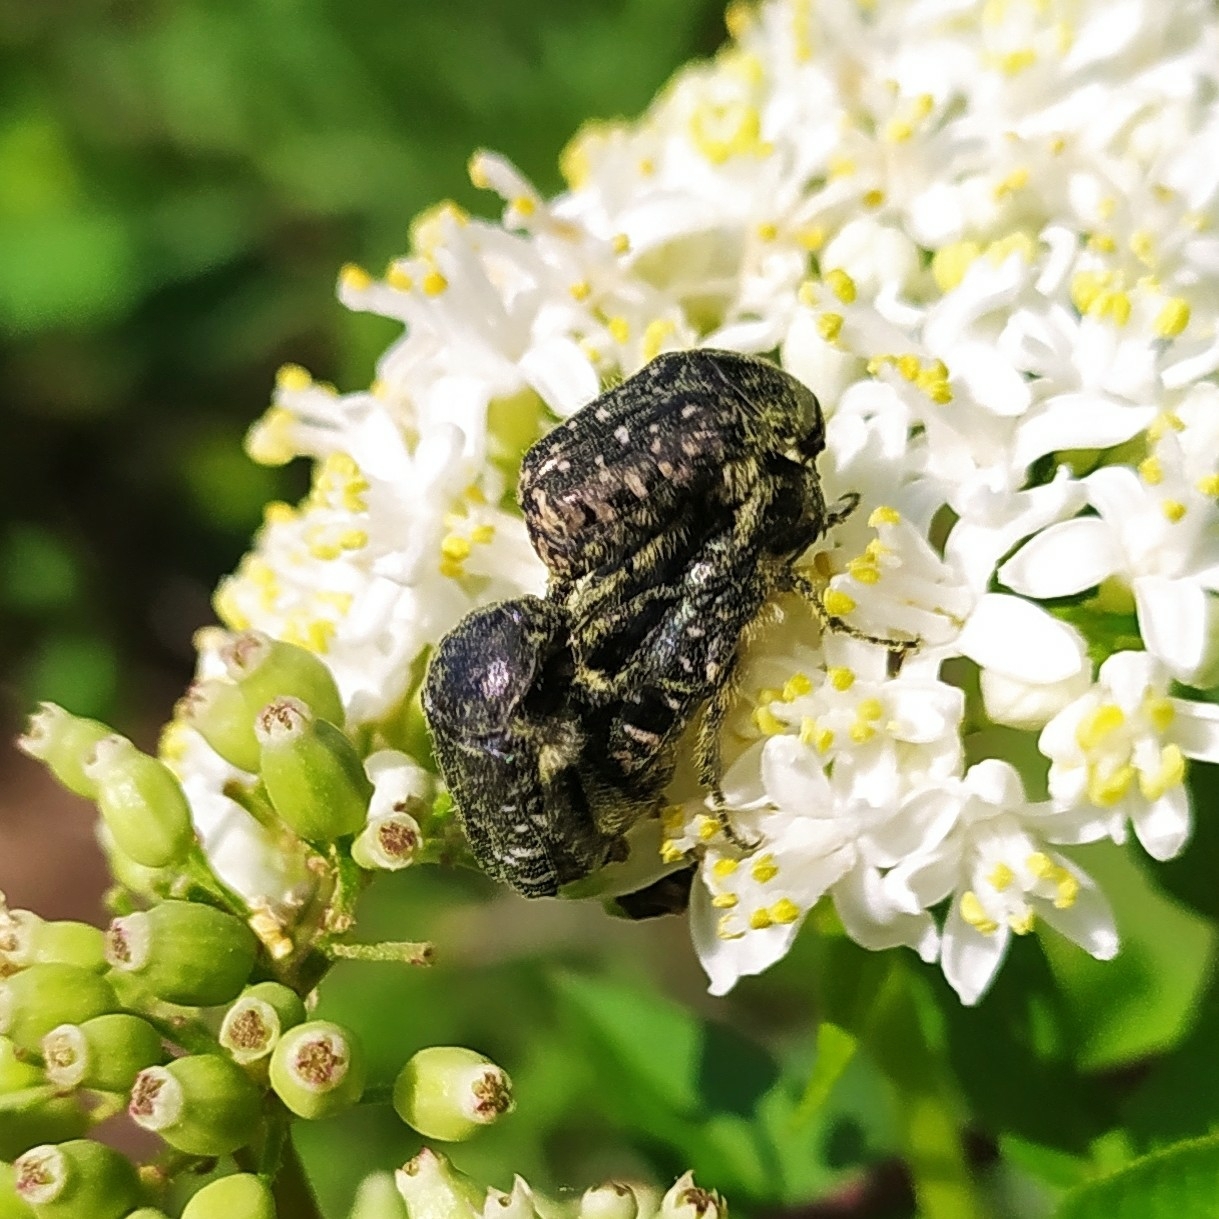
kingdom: Animalia
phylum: Arthropoda
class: Insecta
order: Coleoptera
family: Scarabaeidae
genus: Oxythyrea
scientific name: Oxythyrea funesta
